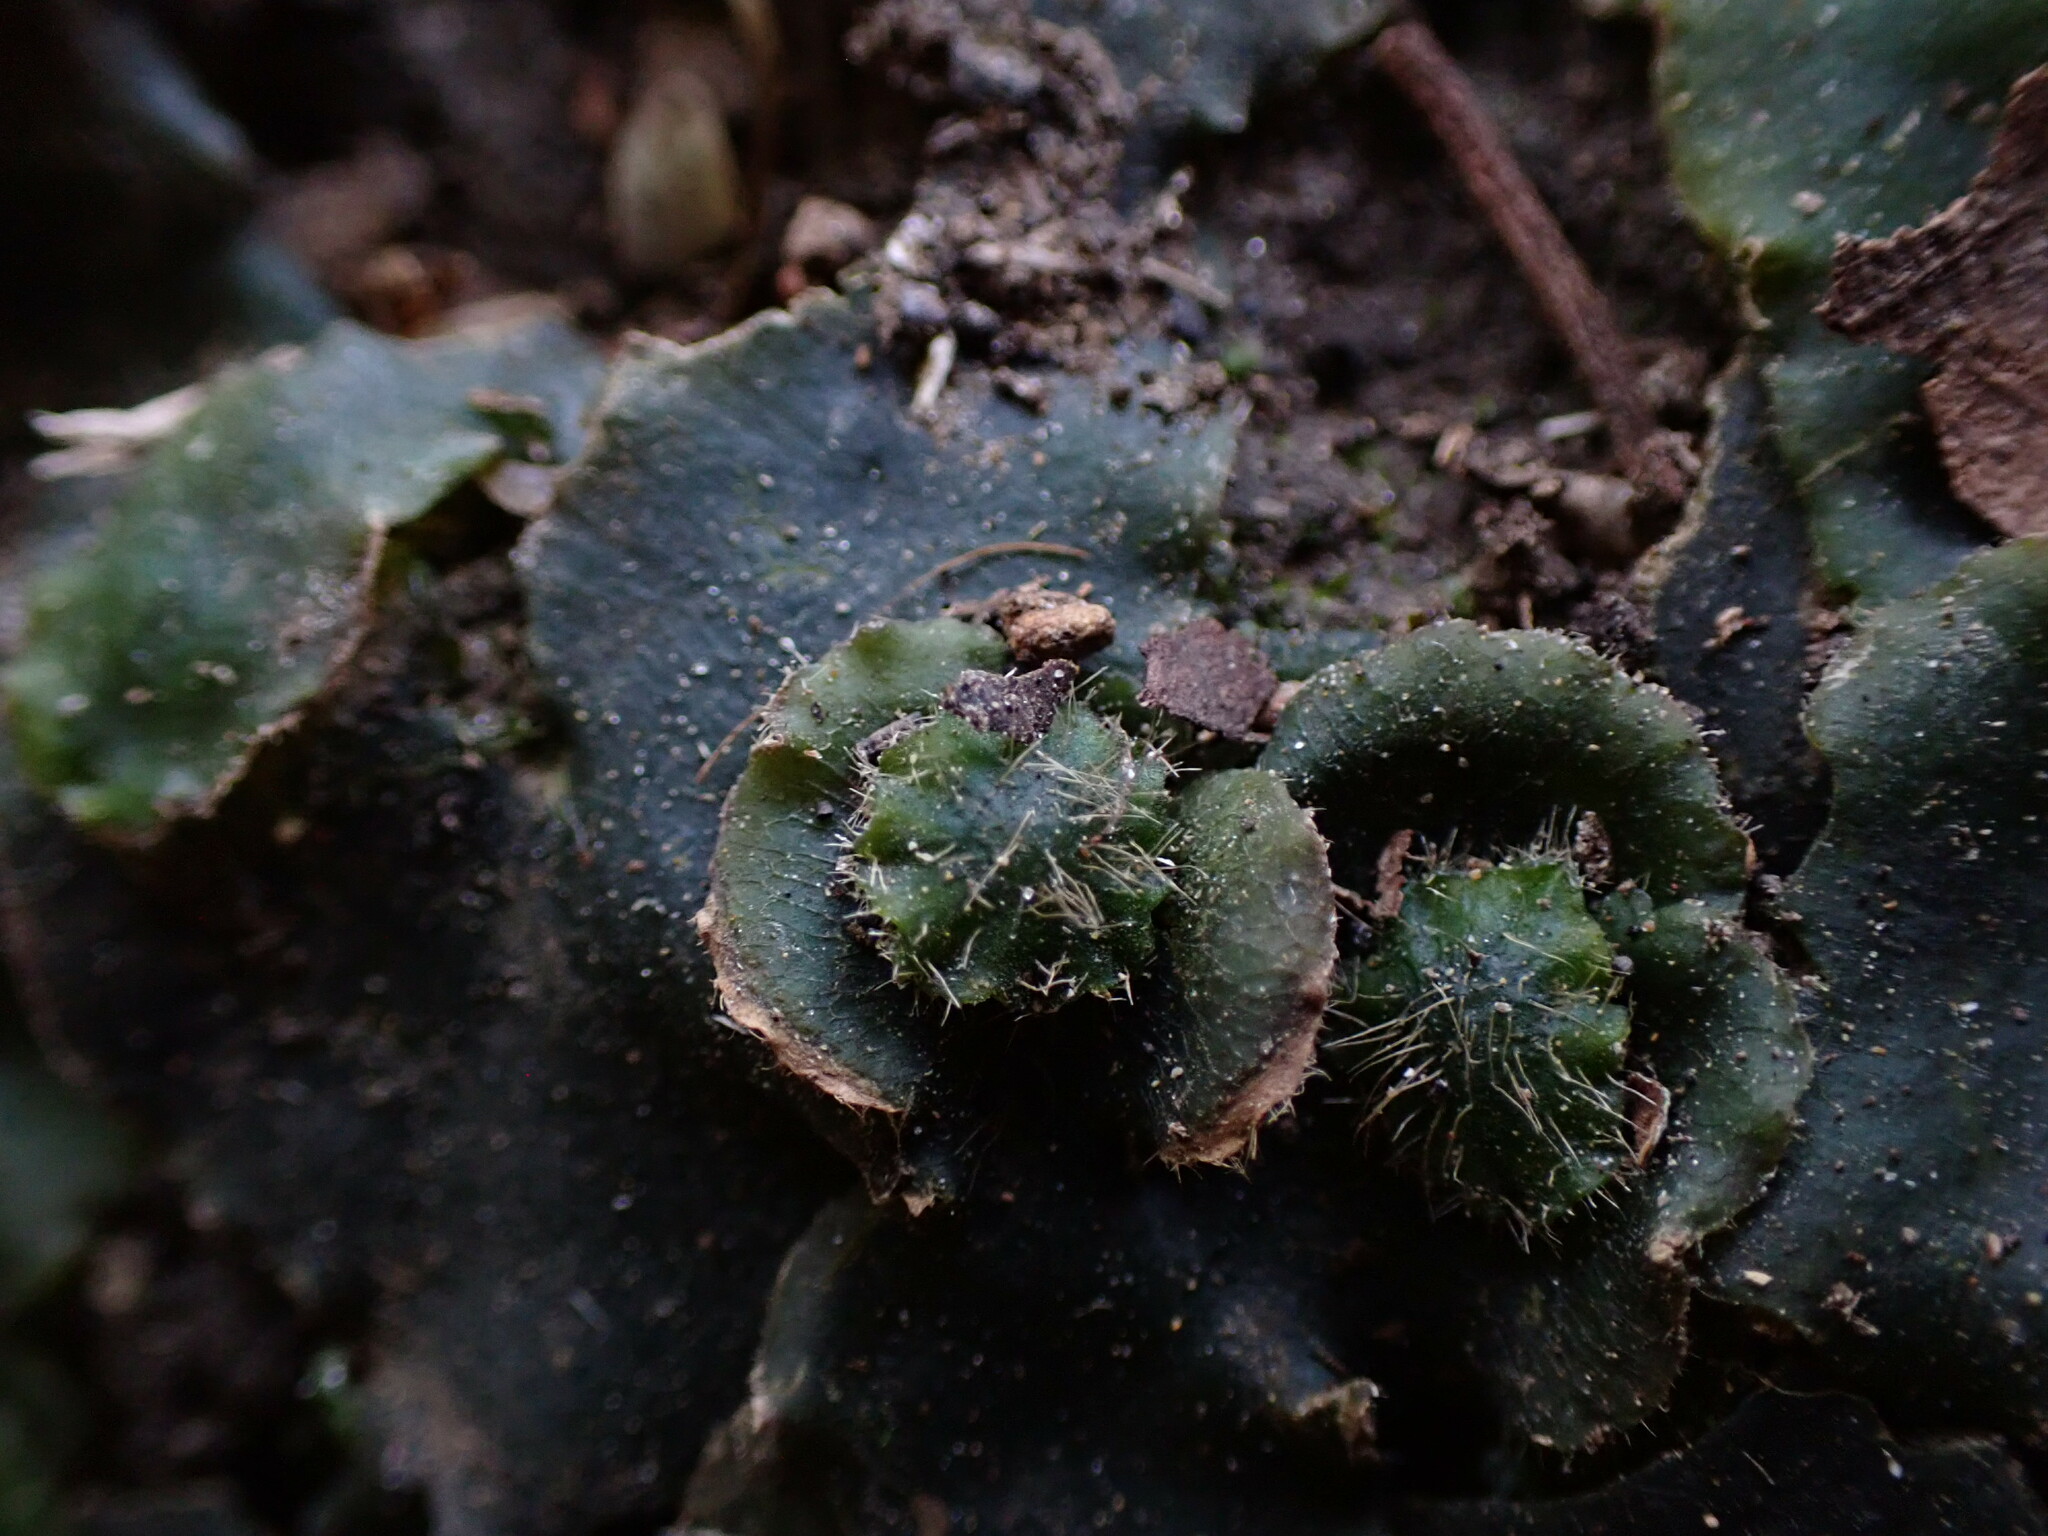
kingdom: Plantae
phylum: Marchantiophyta
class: Marchantiopsida
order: Marchantiales
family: Dumortieraceae
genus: Dumortiera
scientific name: Dumortiera hirsuta
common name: Dumortier's liverwort
